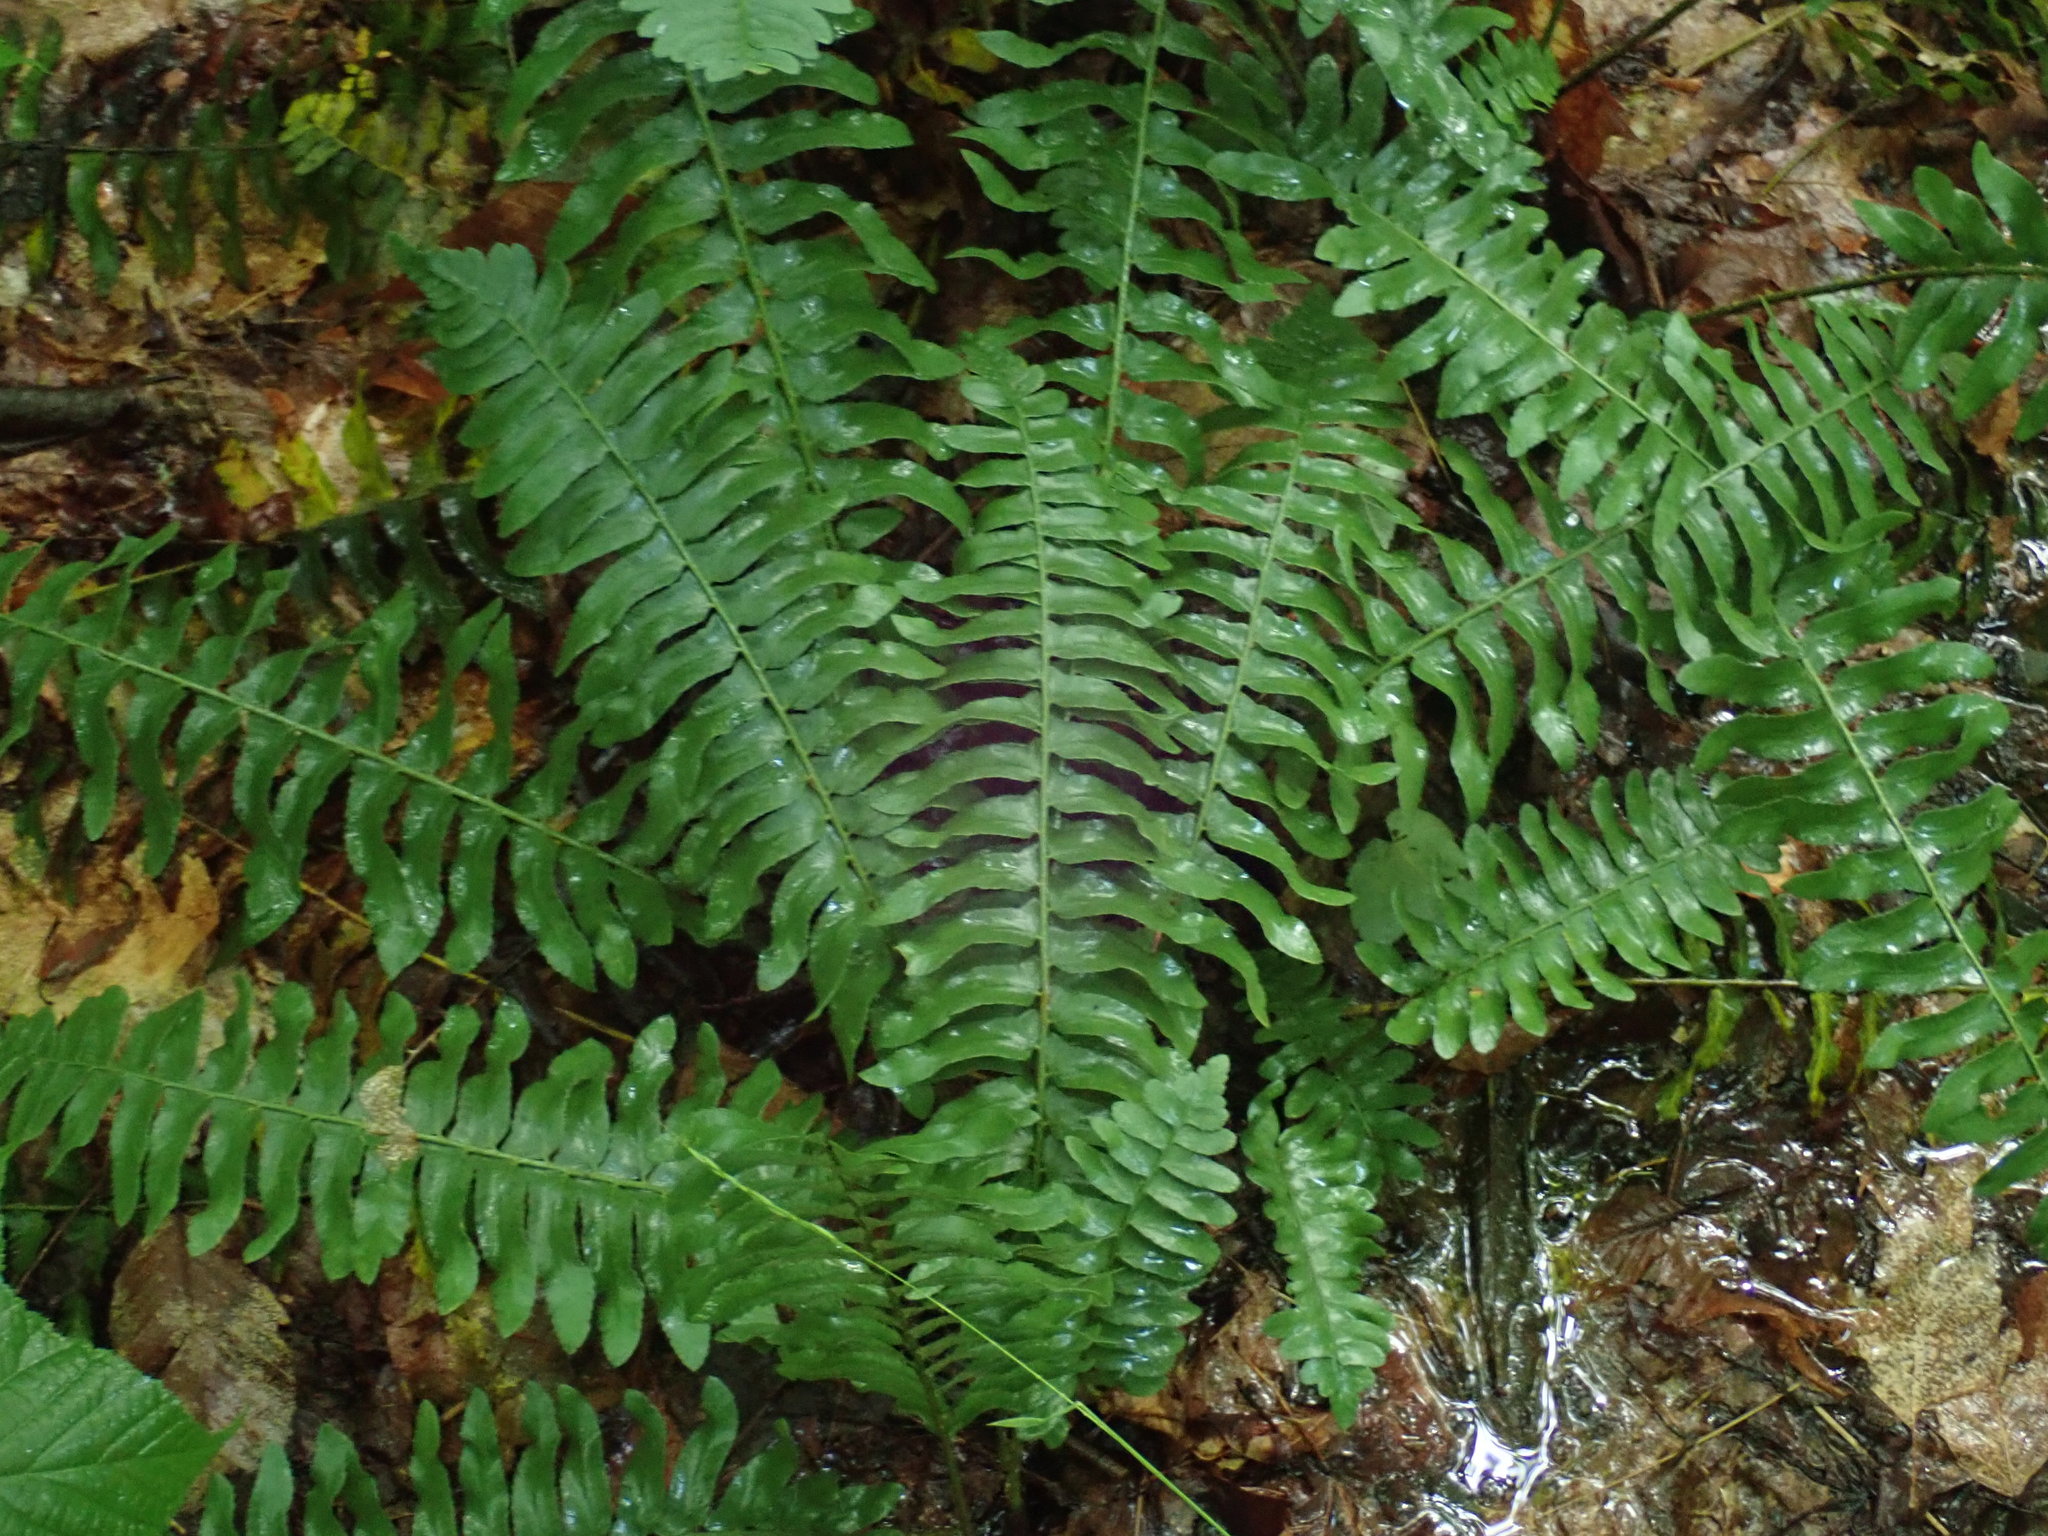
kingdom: Plantae
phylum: Tracheophyta
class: Polypodiopsida
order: Polypodiales
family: Dryopteridaceae
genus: Polystichum
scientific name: Polystichum acrostichoides
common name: Christmas fern
